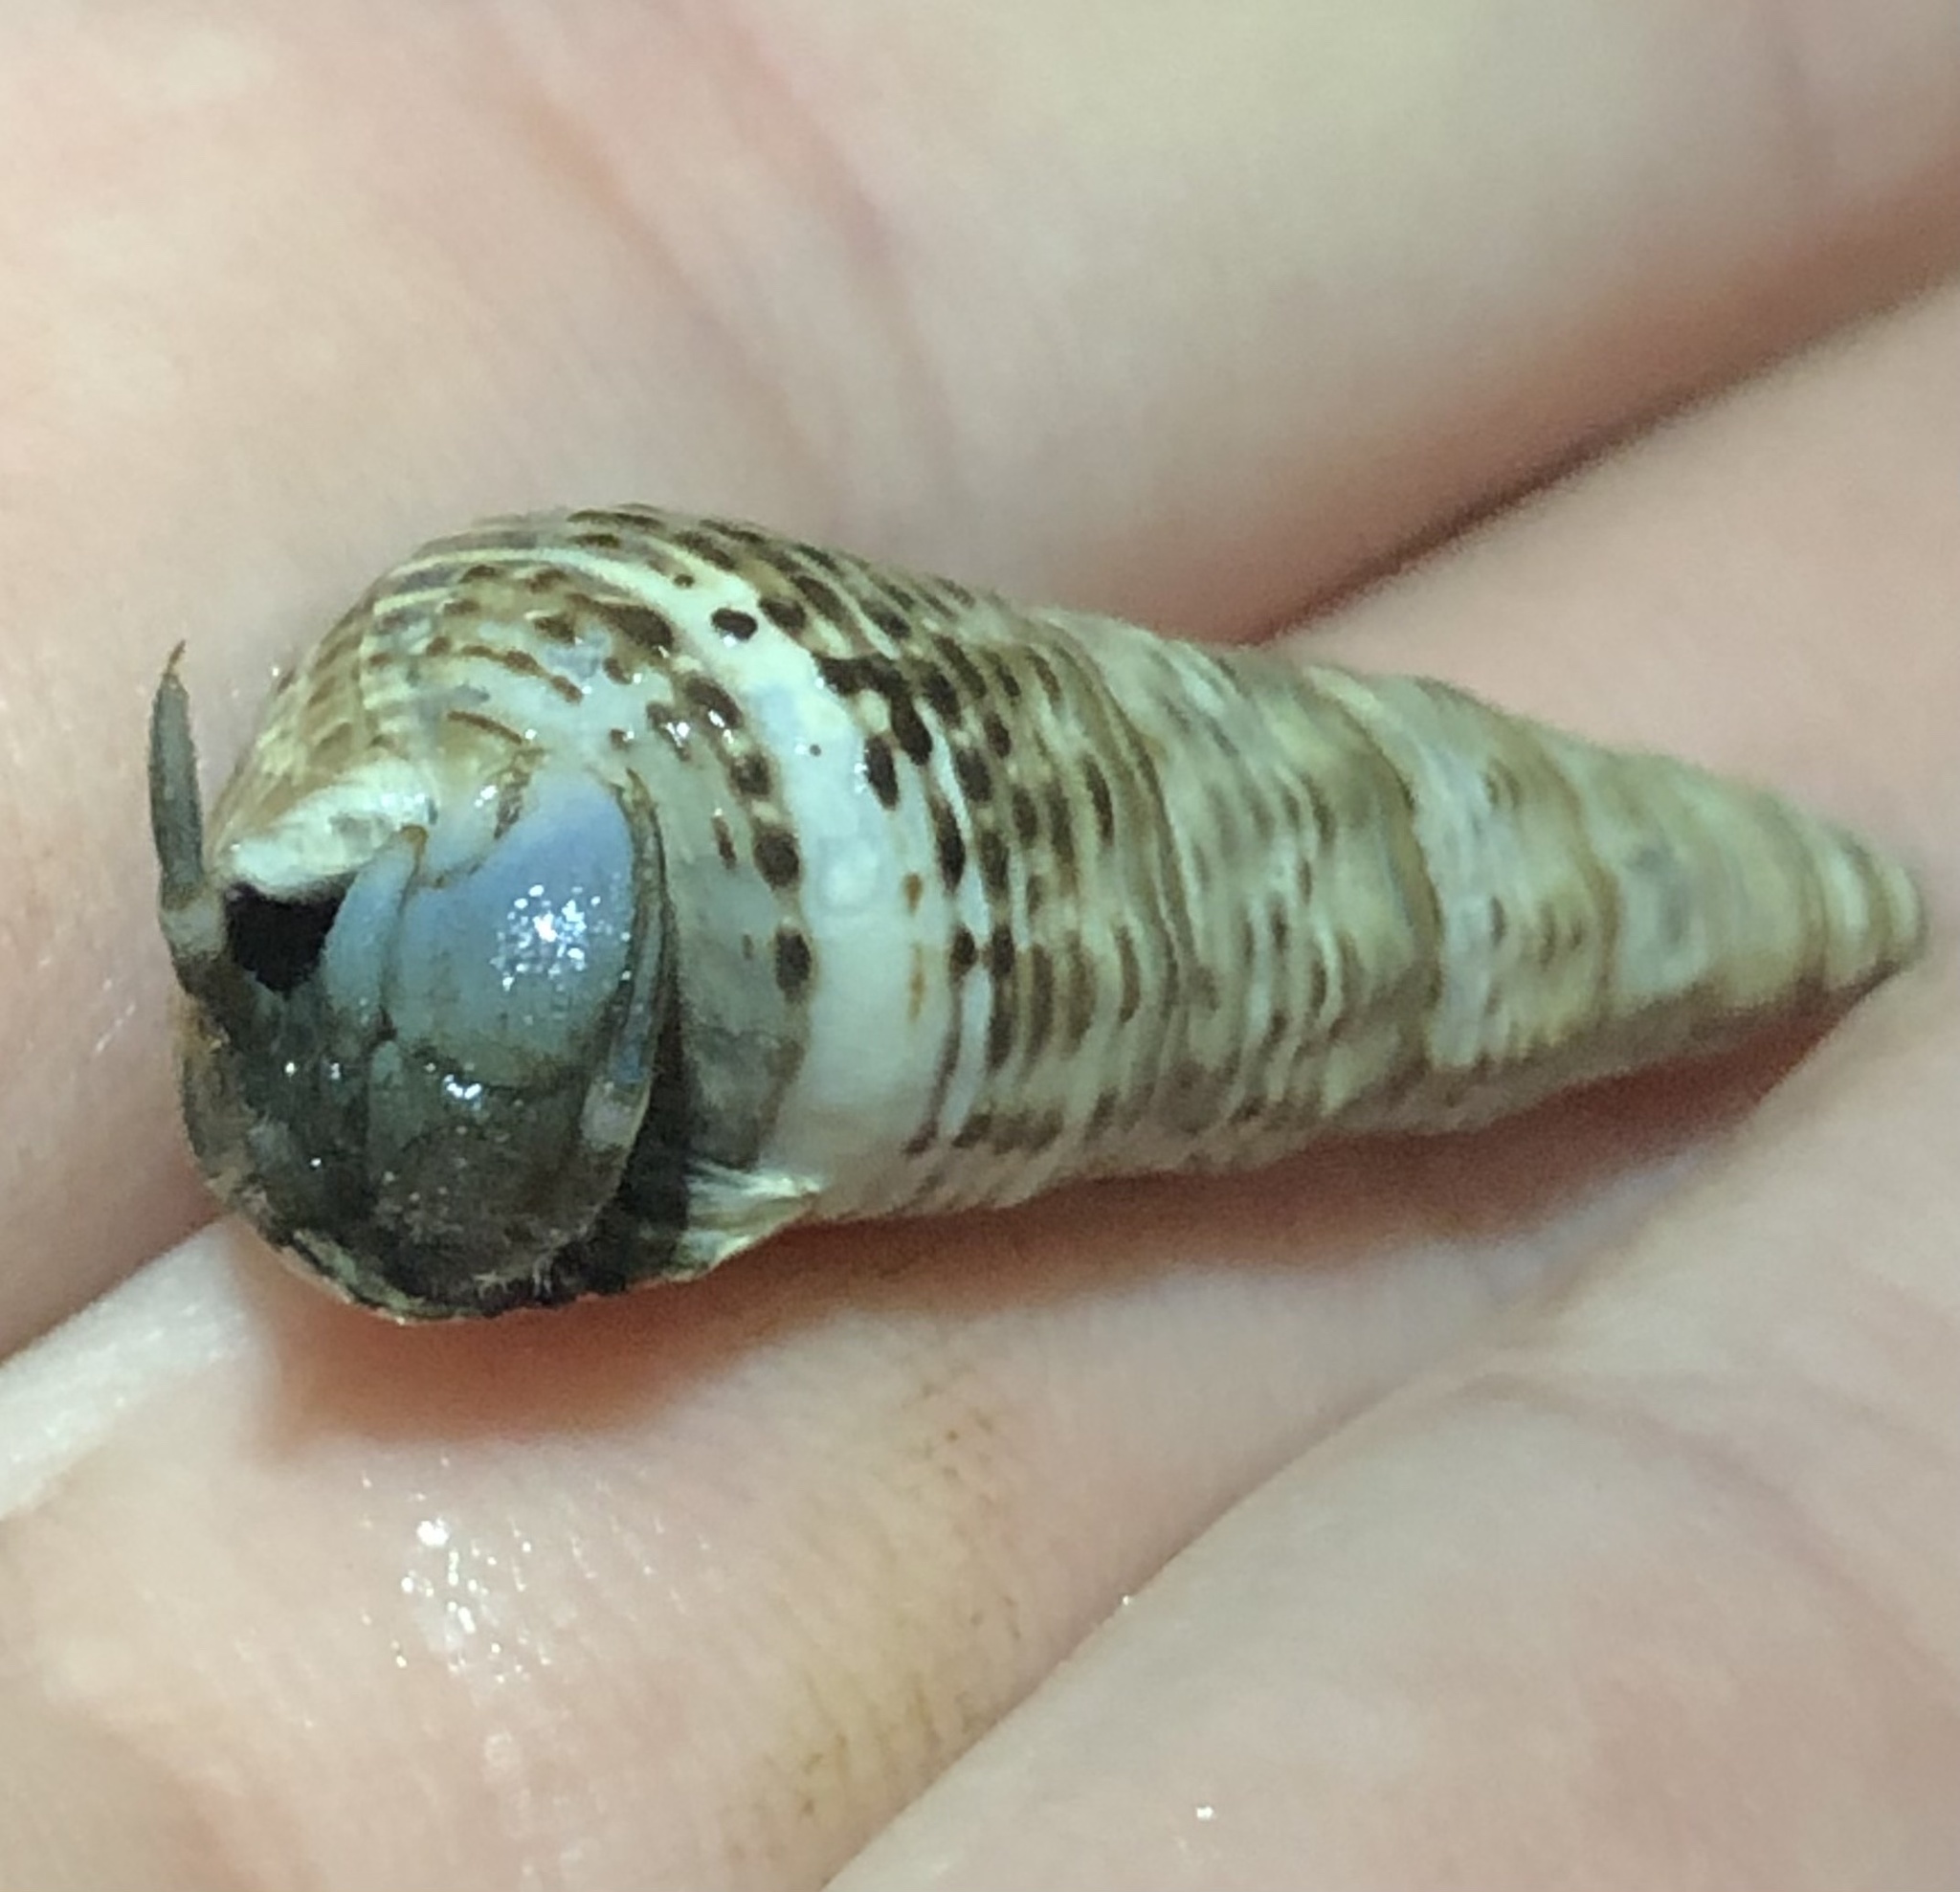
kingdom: Animalia
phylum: Arthropoda
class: Malacostraca
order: Decapoda
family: Paguridae
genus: Pagurus
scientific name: Pagurus hirsutiusculus
